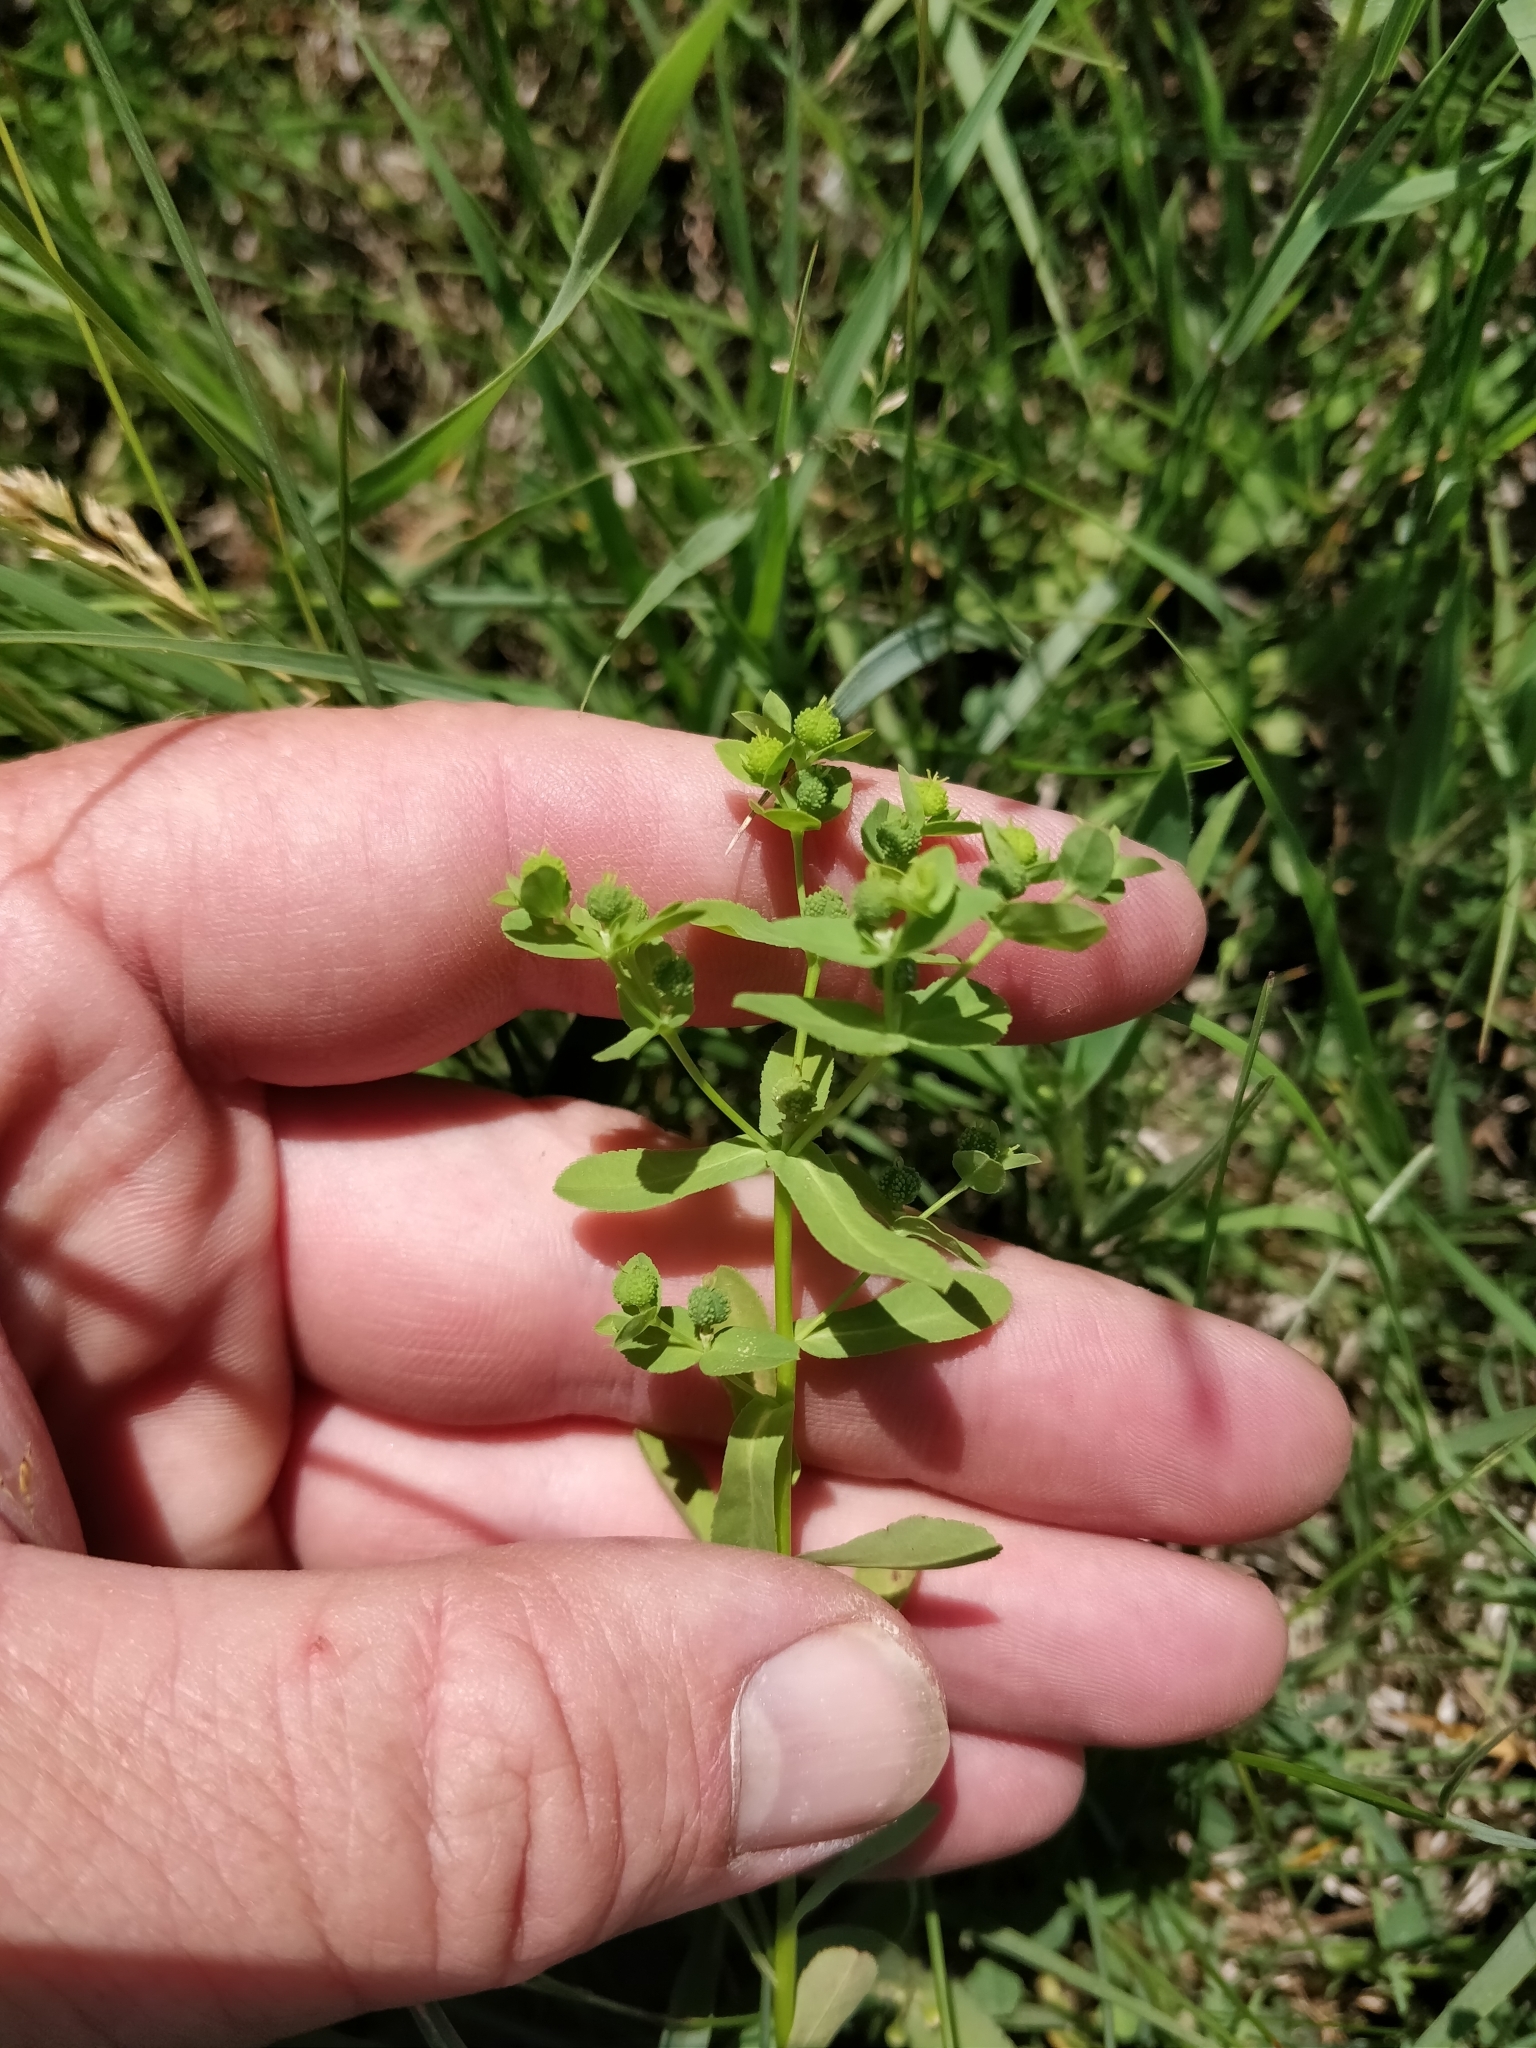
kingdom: Plantae
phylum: Tracheophyta
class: Magnoliopsida
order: Malpighiales
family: Euphorbiaceae
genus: Euphorbia
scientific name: Euphorbia spathulata
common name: Blunt spurge
